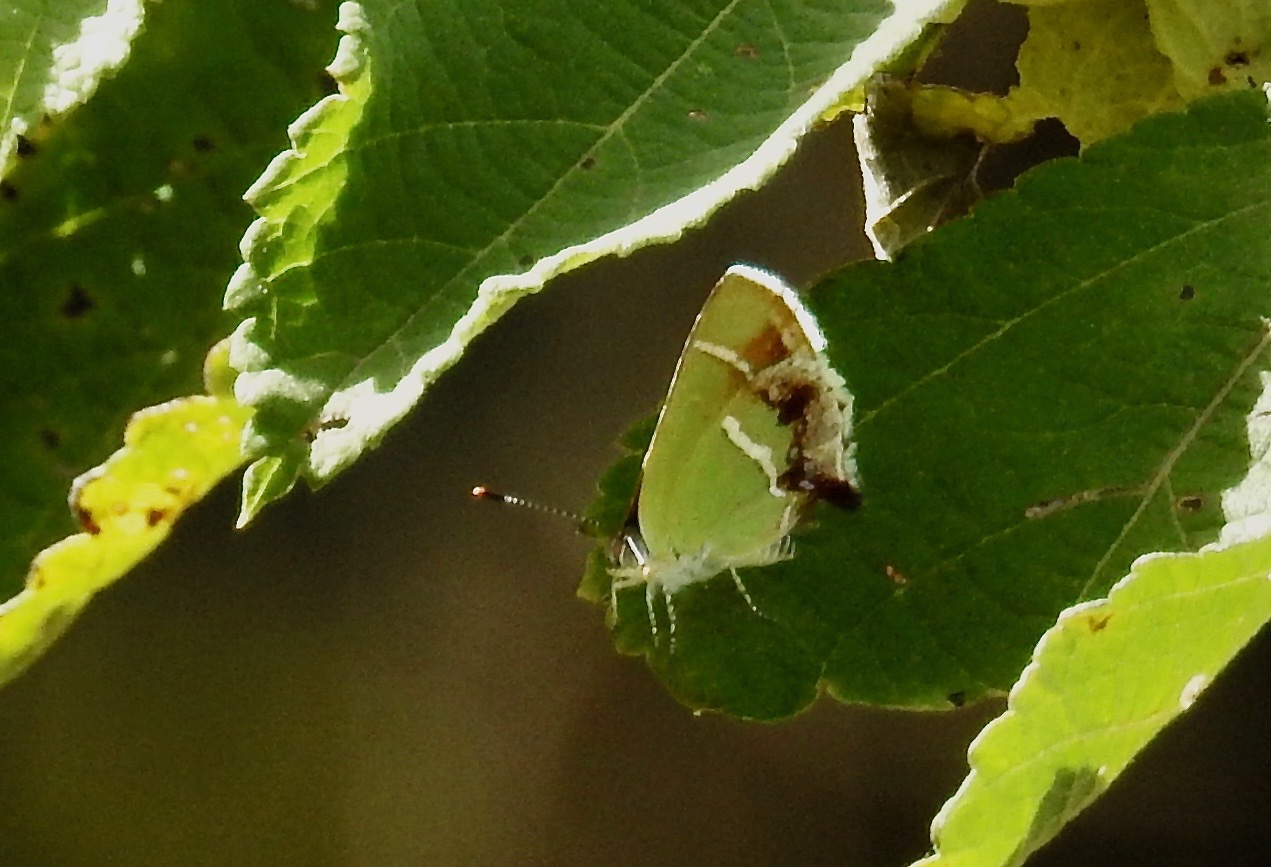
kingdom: Animalia
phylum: Arthropoda
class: Insecta
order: Lepidoptera
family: Lycaenidae
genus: Chlorostrymon
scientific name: Chlorostrymon simaethis
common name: Silver-banded hairstreak
